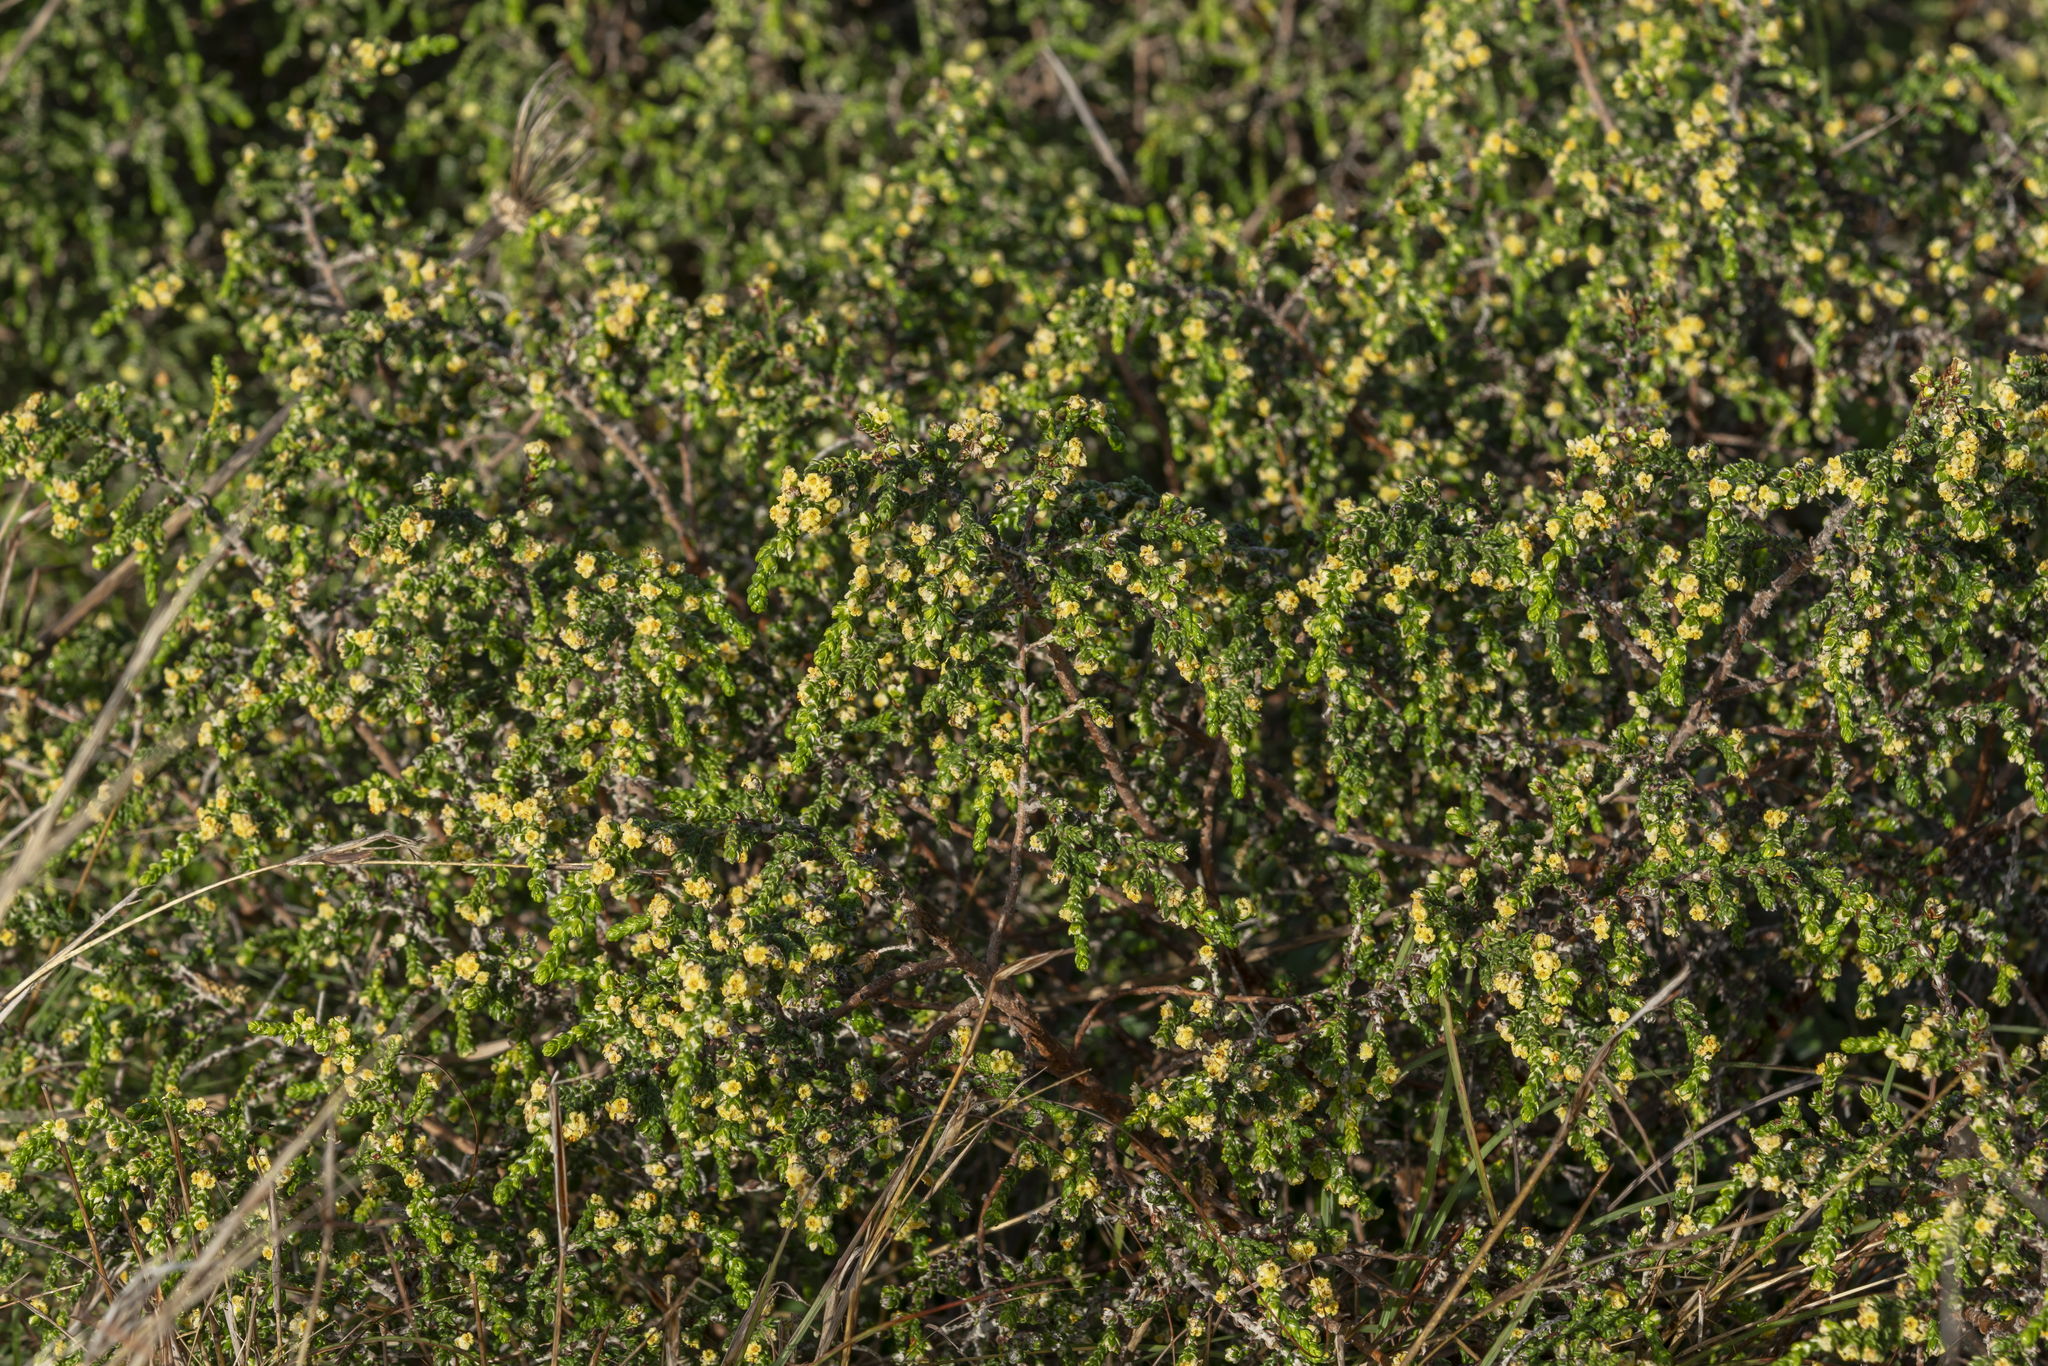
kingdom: Plantae
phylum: Tracheophyta
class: Magnoliopsida
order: Malvales
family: Thymelaeaceae
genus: Thymelaea
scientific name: Thymelaea hirsuta
